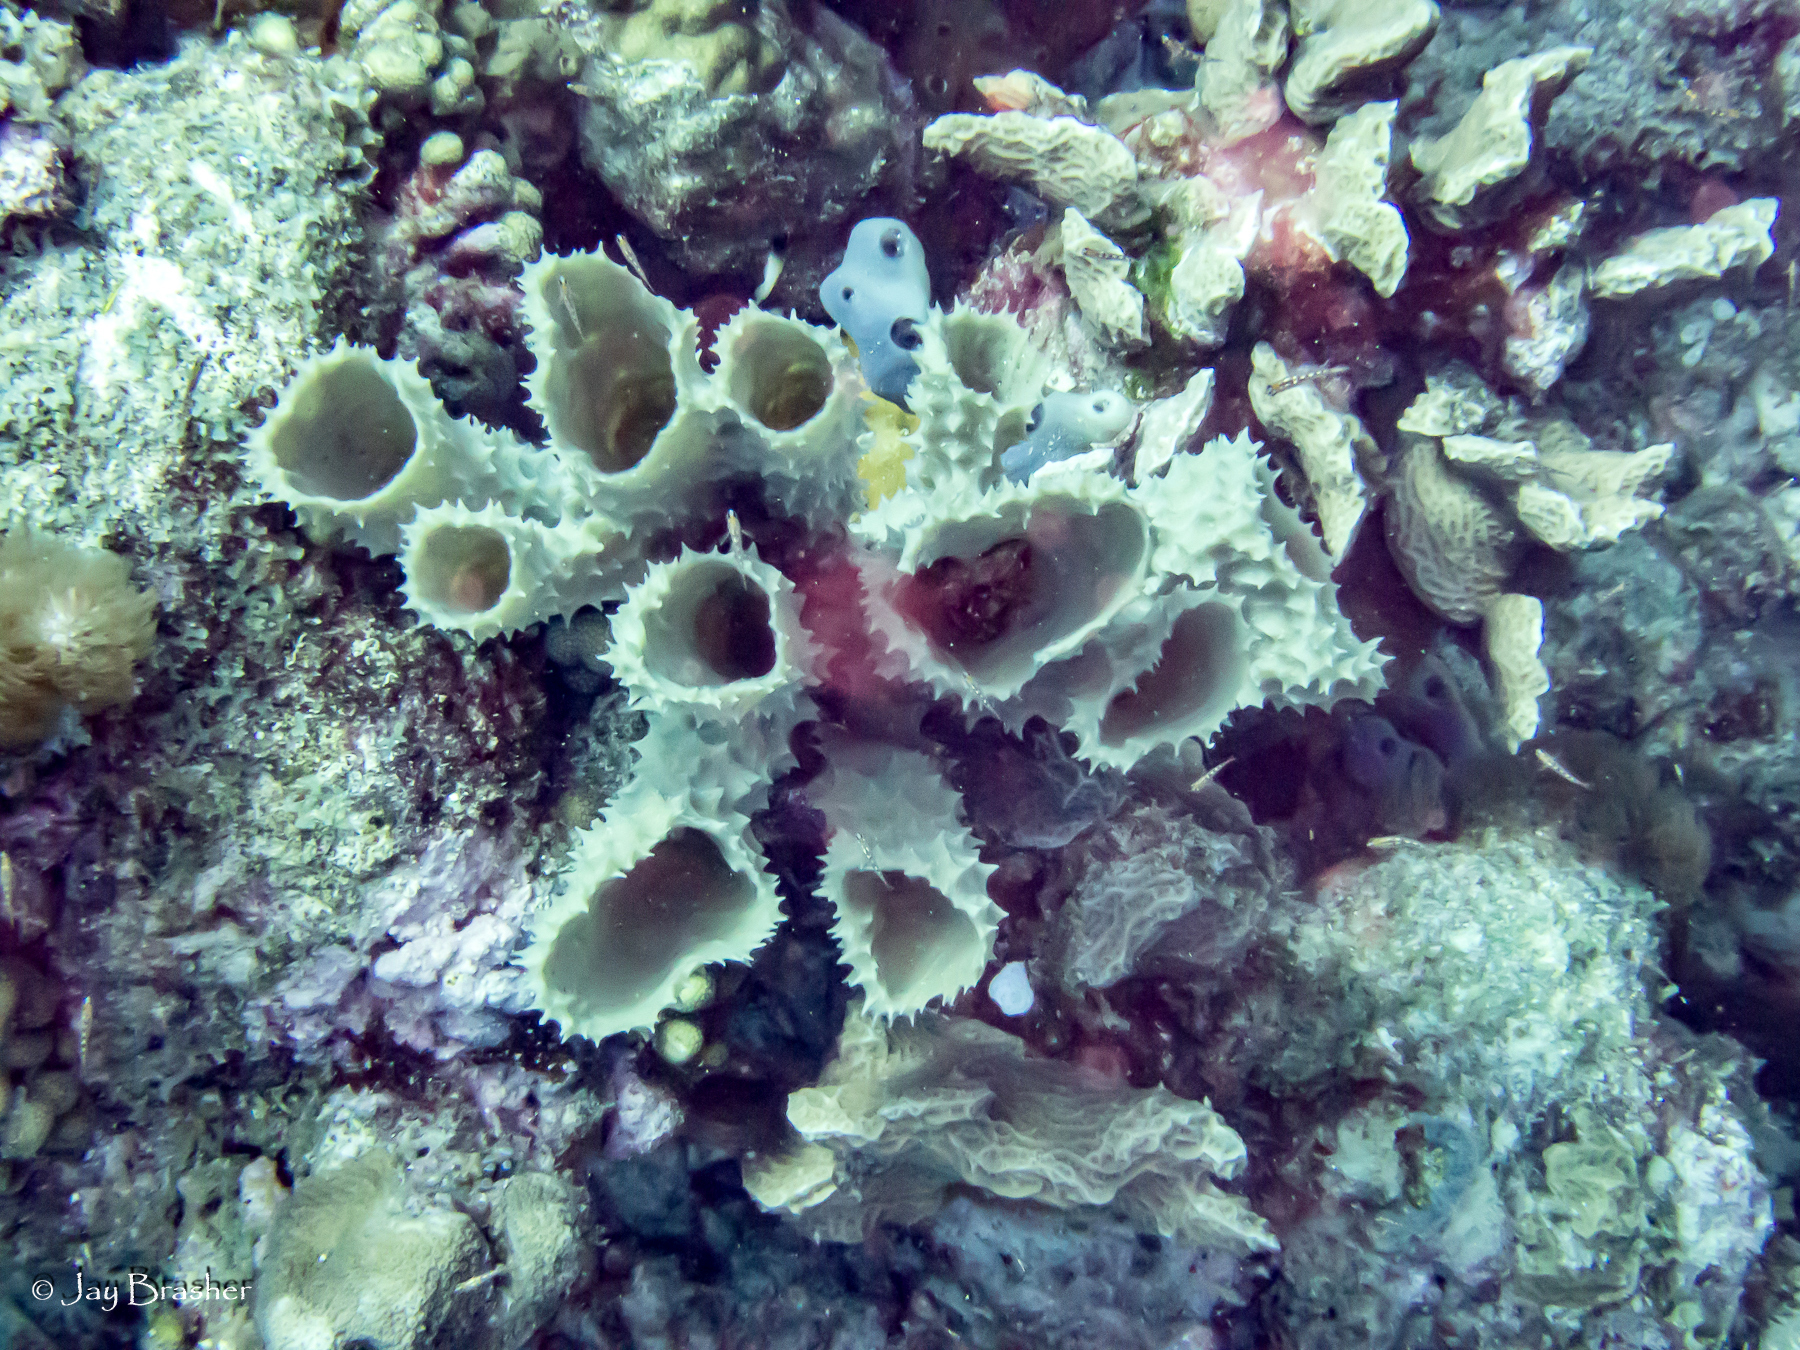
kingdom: Animalia
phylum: Porifera
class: Demospongiae
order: Haplosclerida
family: Callyspongiidae
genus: Callyspongia
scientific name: Callyspongia aculeata
